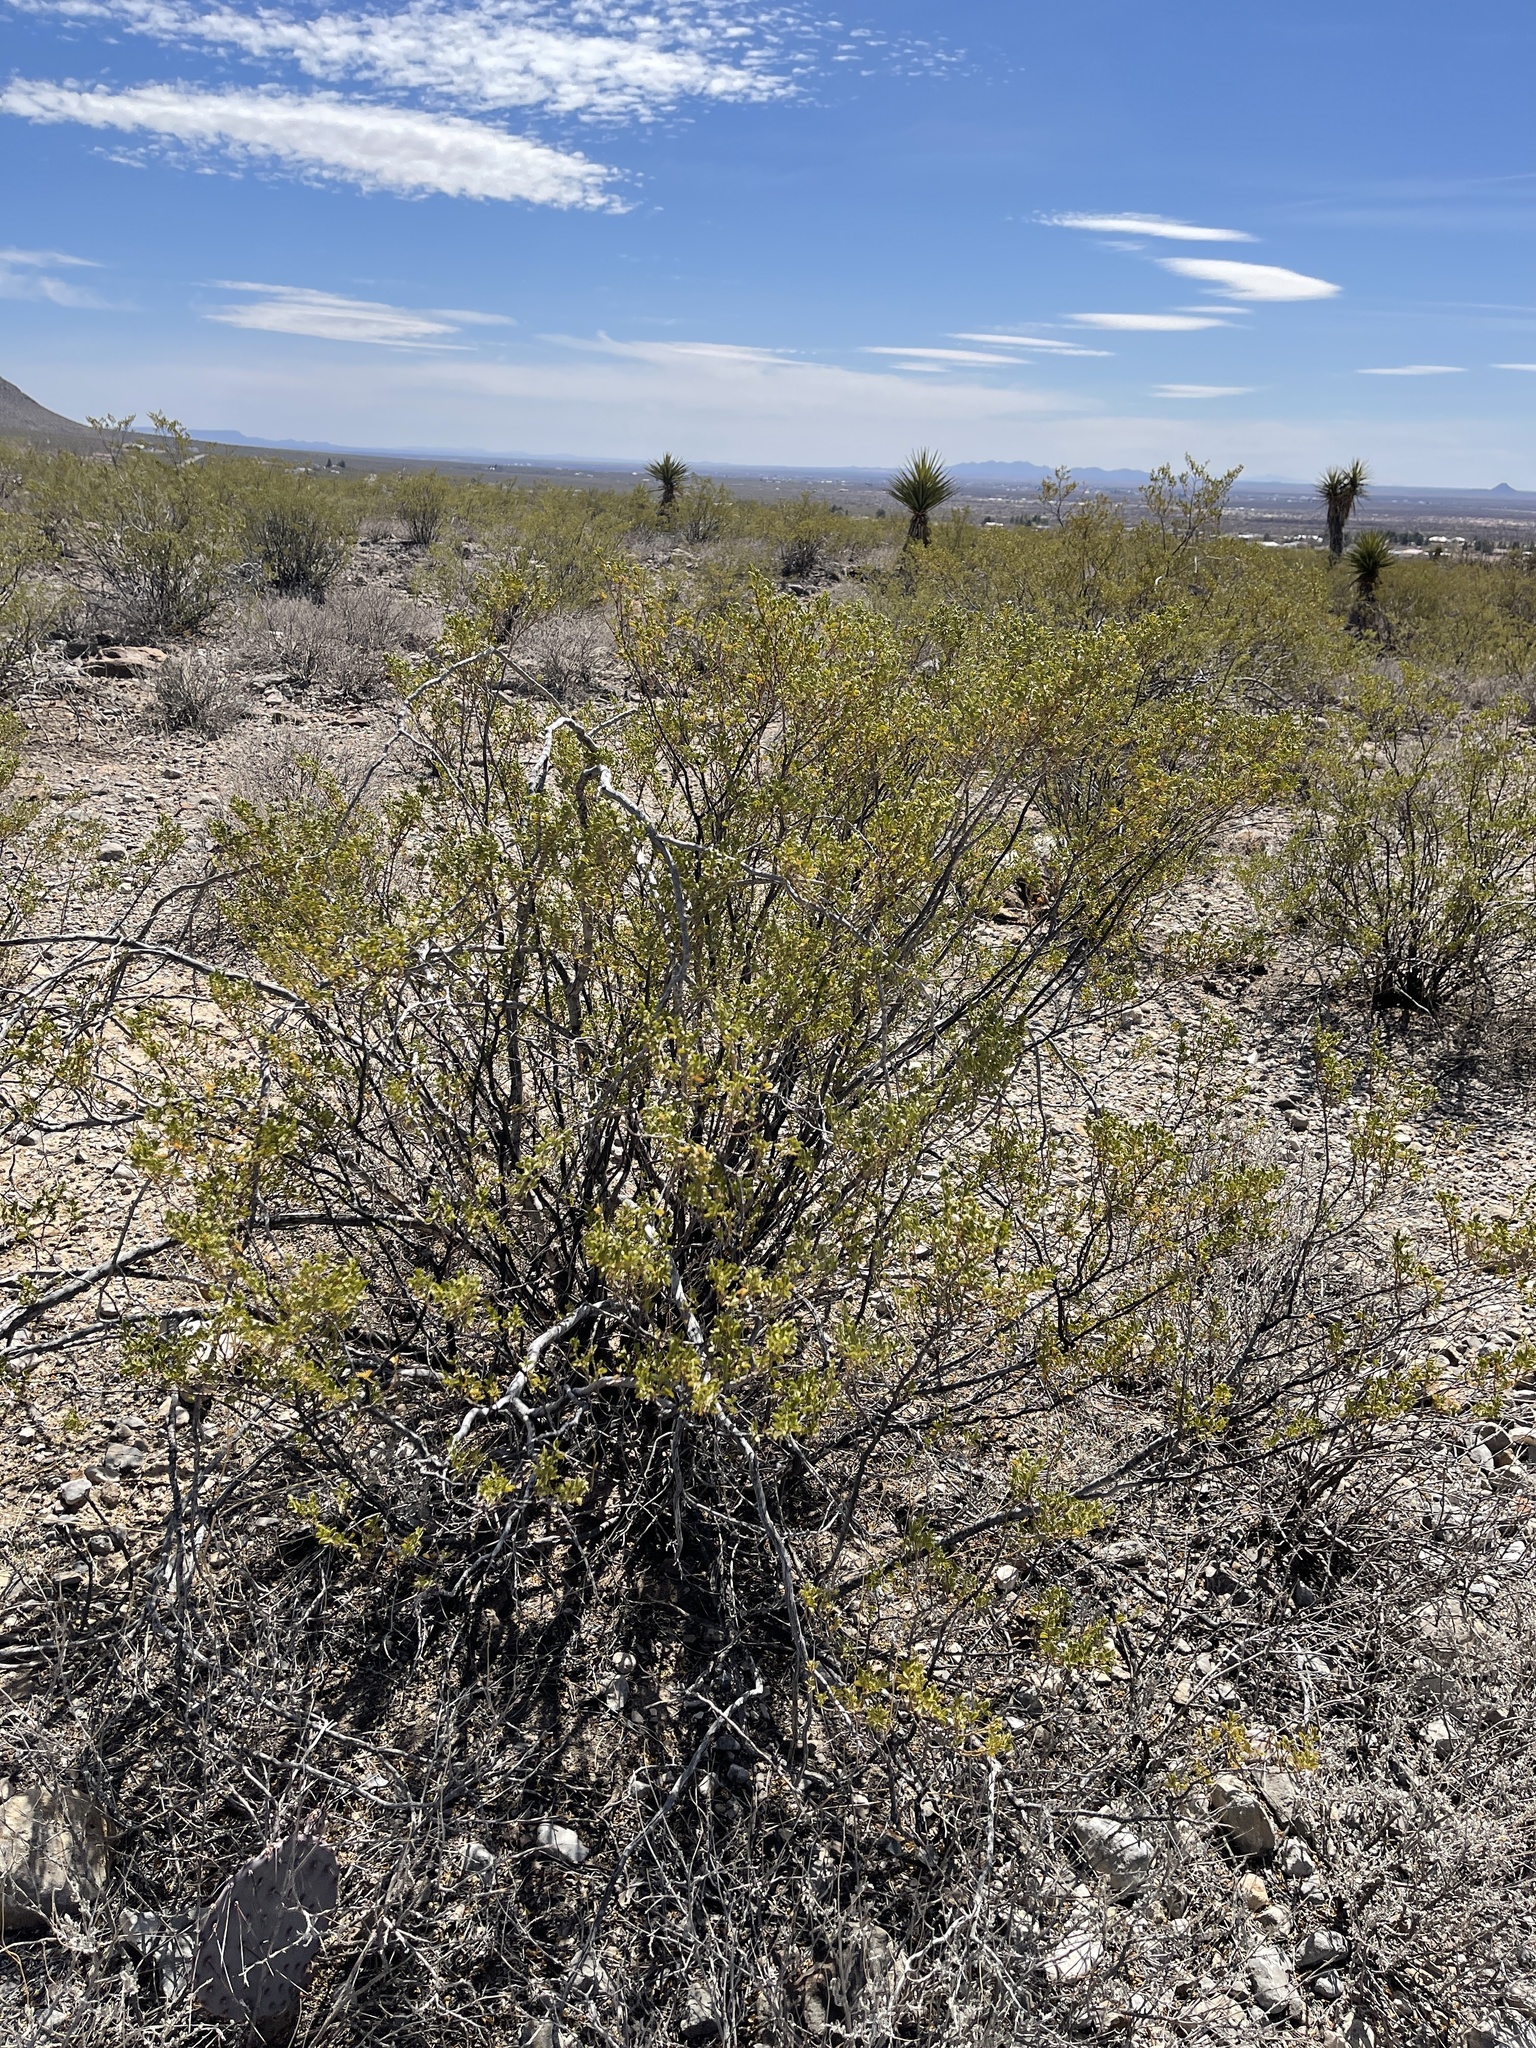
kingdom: Plantae
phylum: Tracheophyta
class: Magnoliopsida
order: Zygophyllales
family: Zygophyllaceae
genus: Larrea
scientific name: Larrea tridentata
